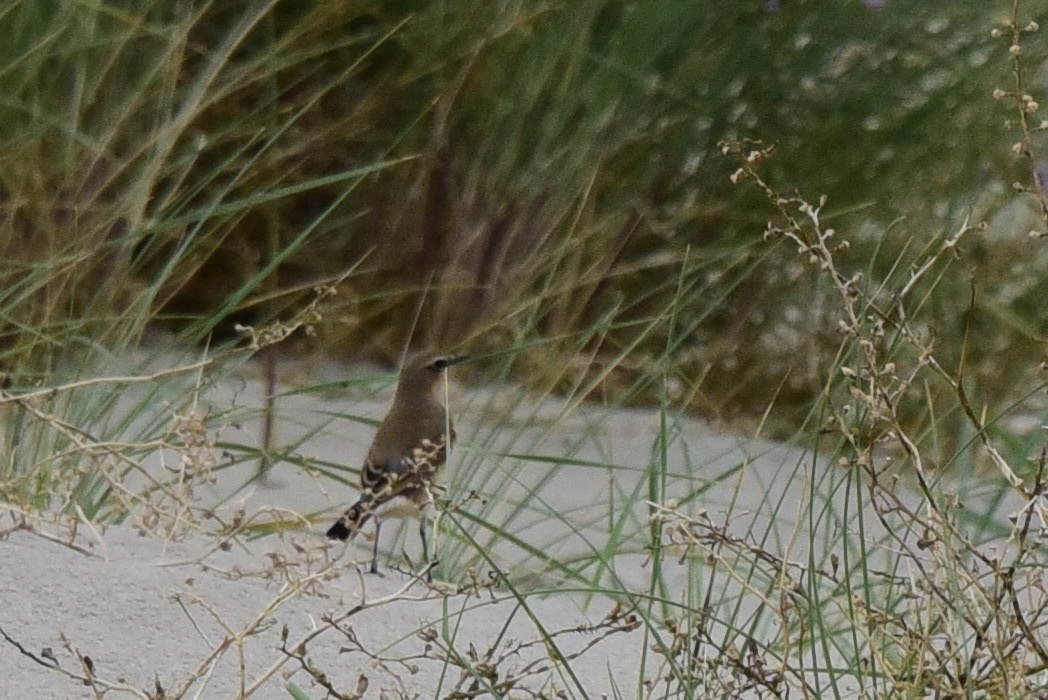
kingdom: Animalia
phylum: Chordata
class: Aves
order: Passeriformes
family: Muscicapidae
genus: Oenanthe
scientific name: Oenanthe oenanthe
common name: Northern wheatear
